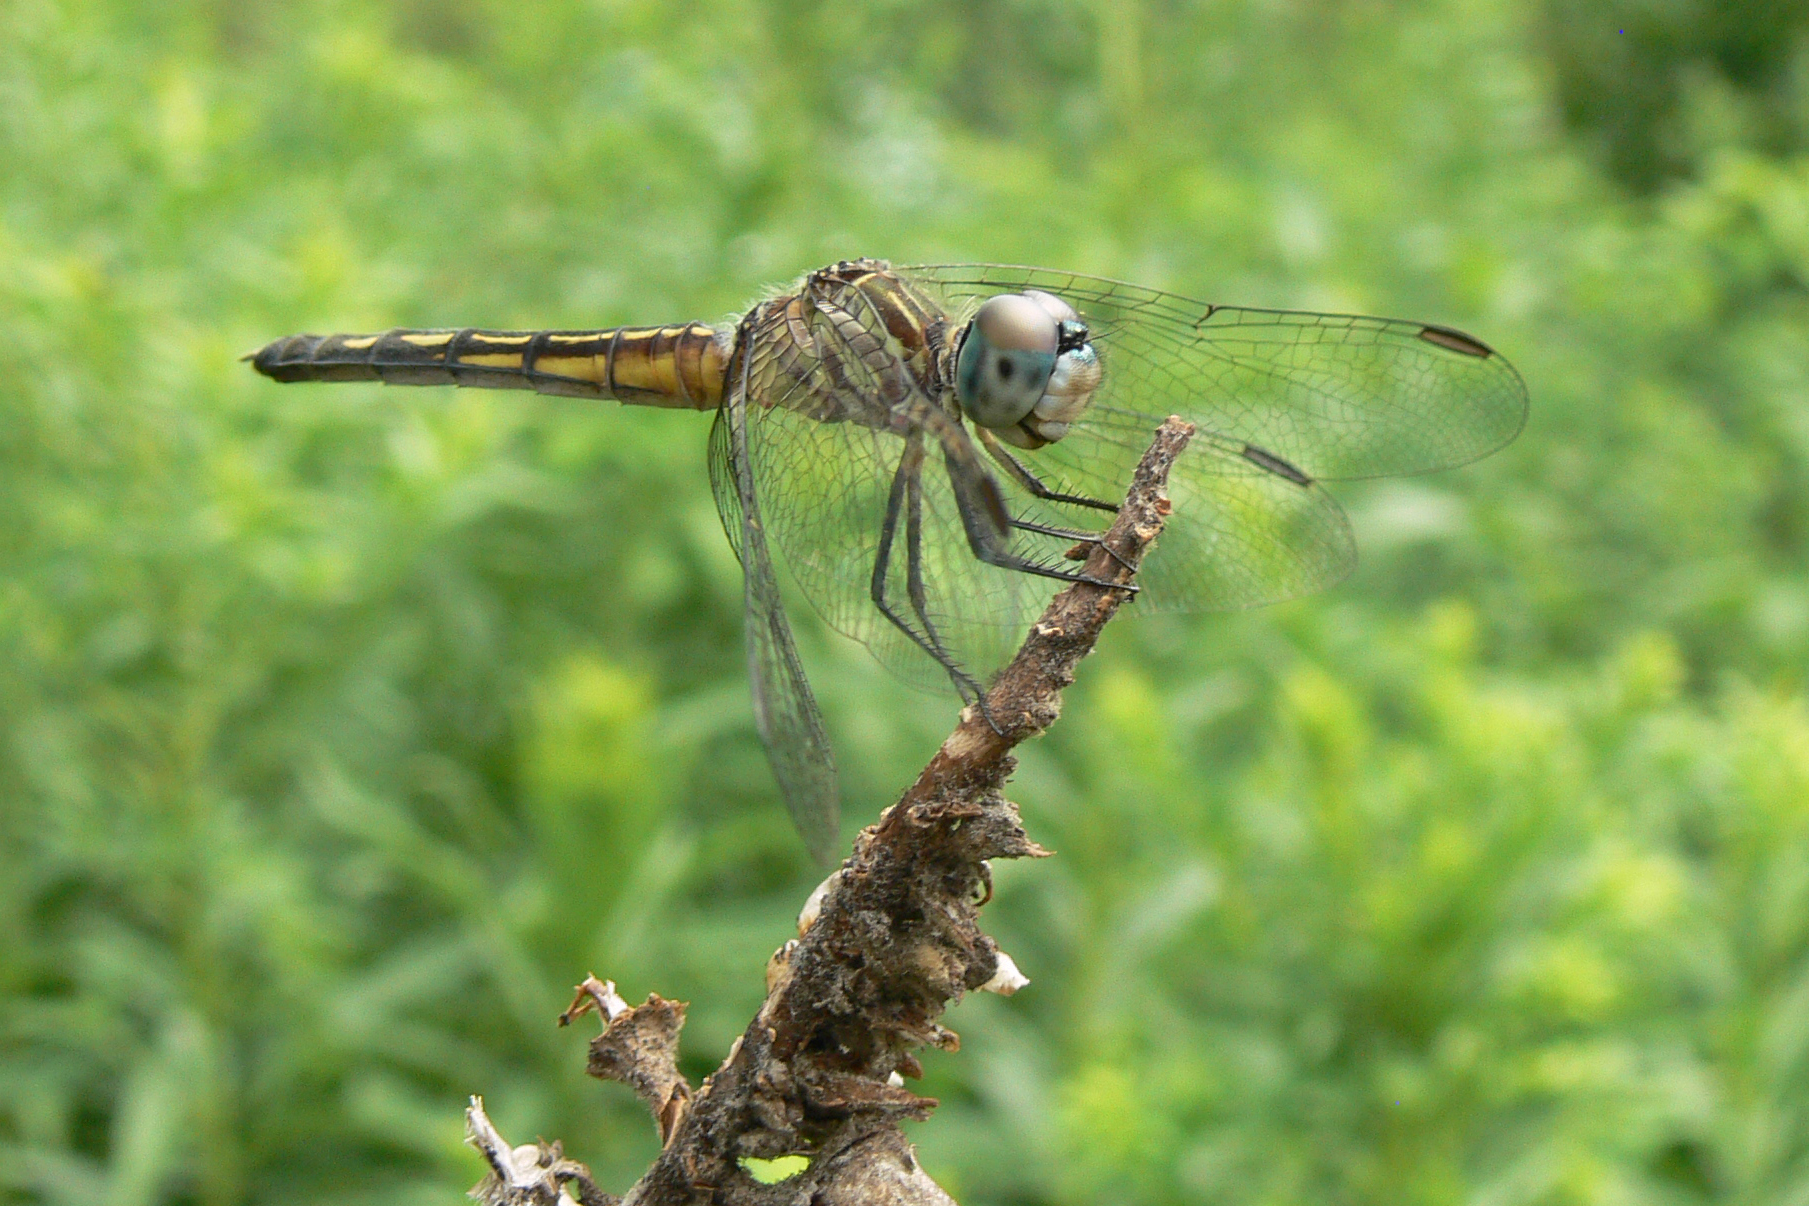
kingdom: Animalia
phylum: Arthropoda
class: Insecta
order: Odonata
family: Libellulidae
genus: Pachydiplax
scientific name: Pachydiplax longipennis
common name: Blue dasher
